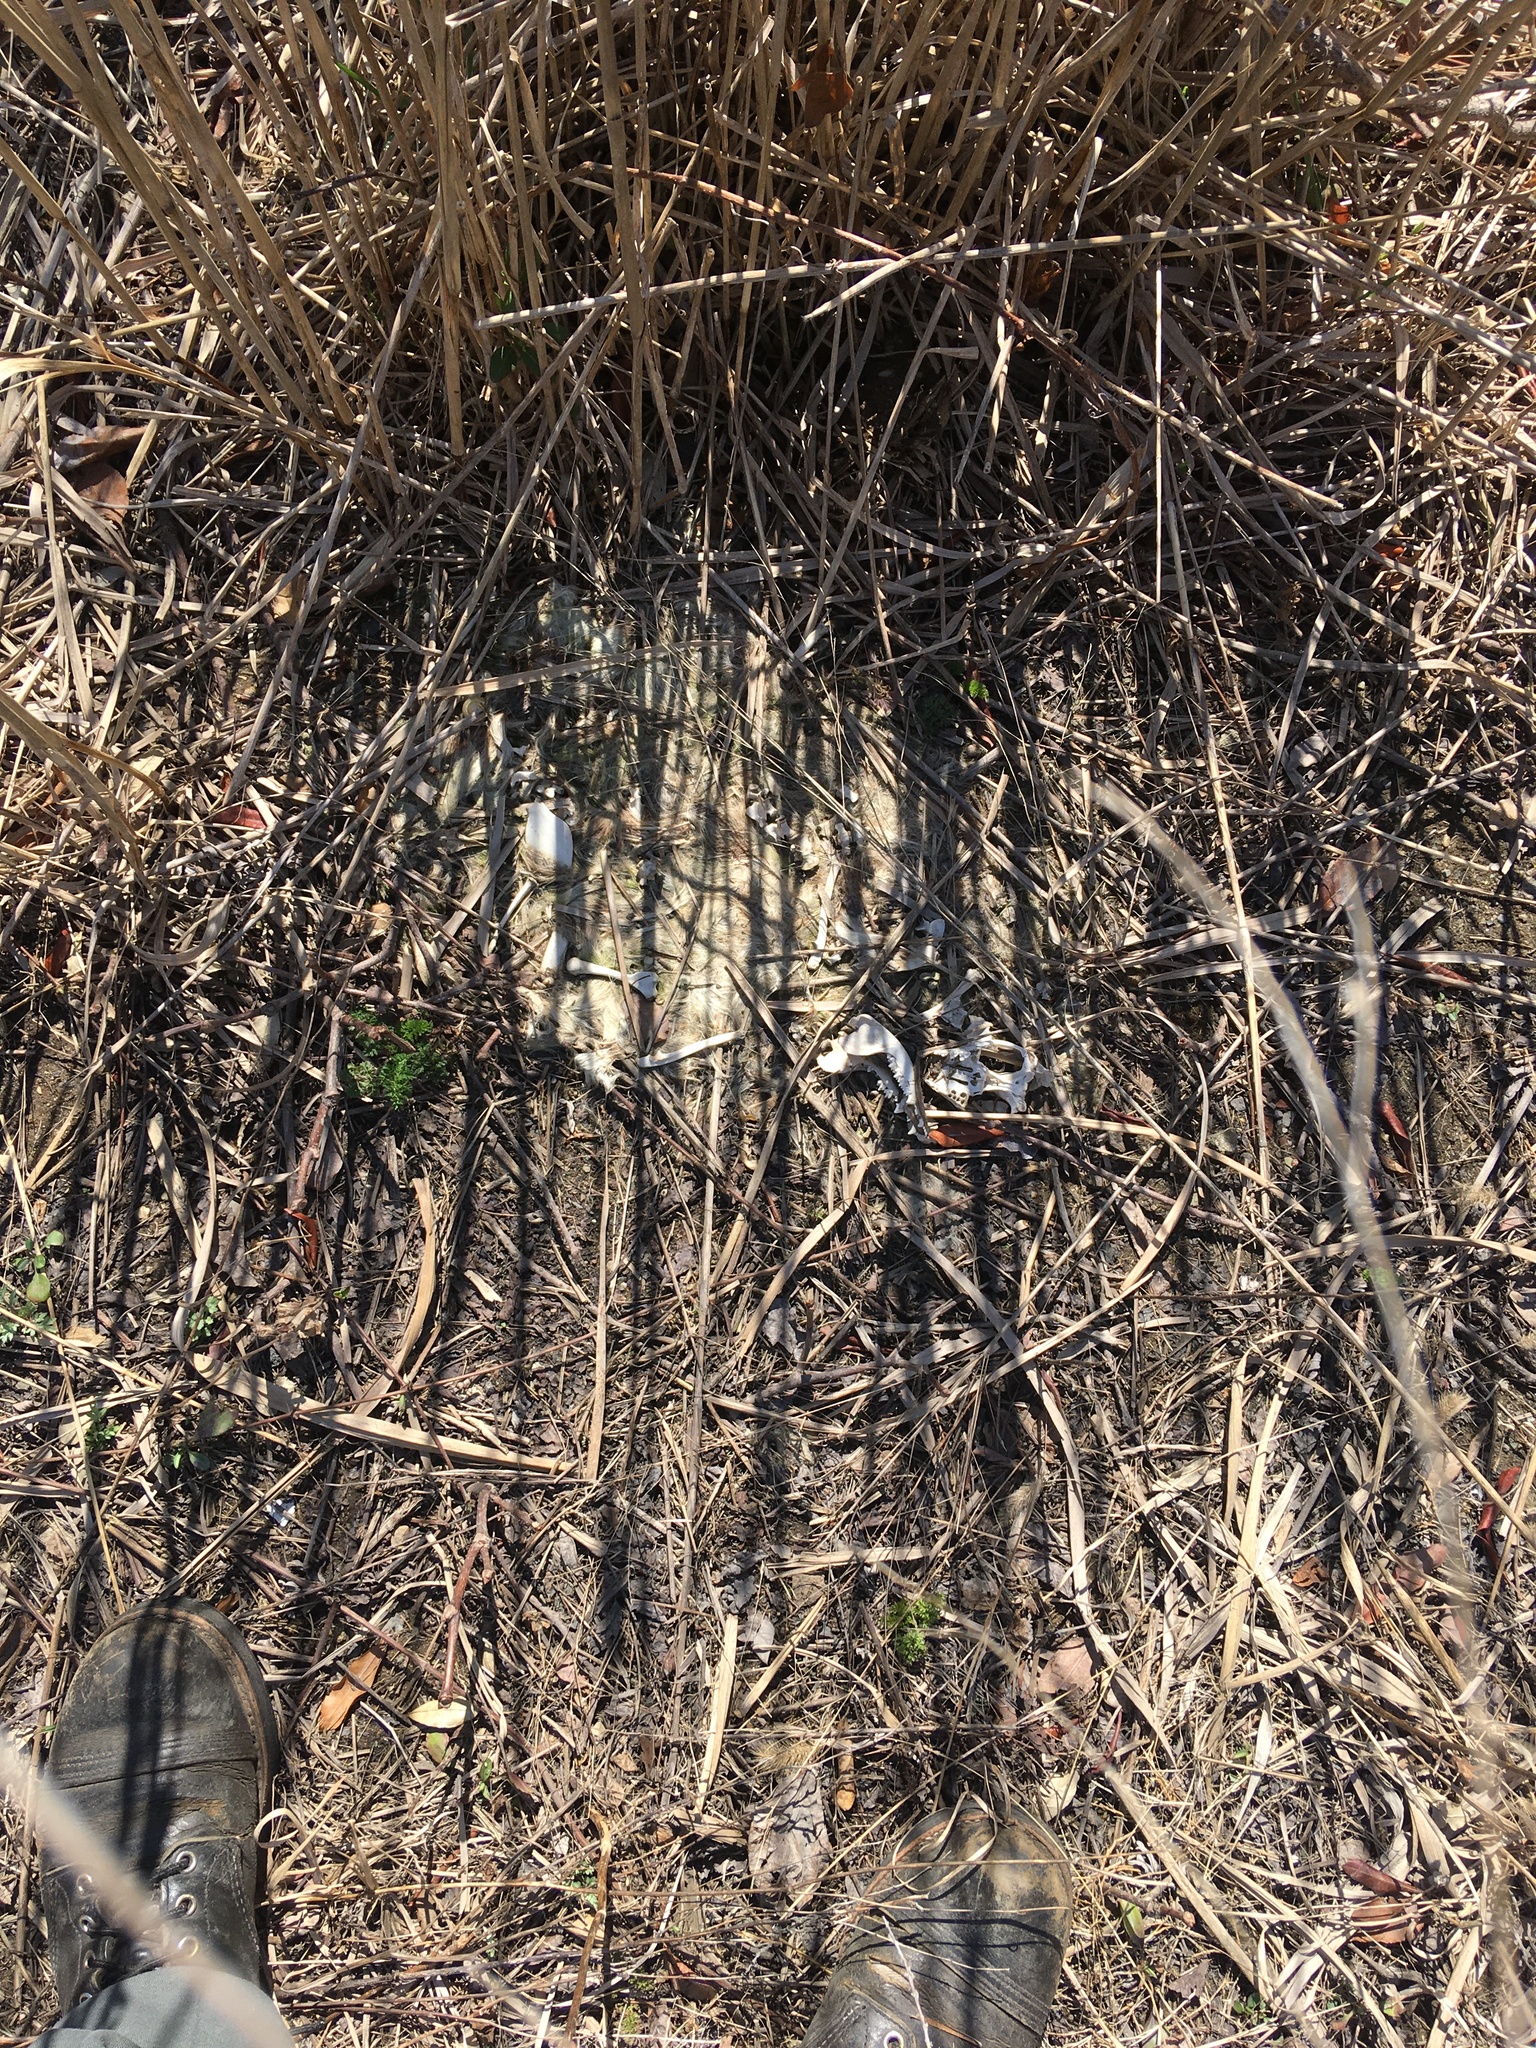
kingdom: Animalia
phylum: Chordata
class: Mammalia
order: Didelphimorphia
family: Didelphidae
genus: Didelphis
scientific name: Didelphis virginiana
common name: Virginia opossum
